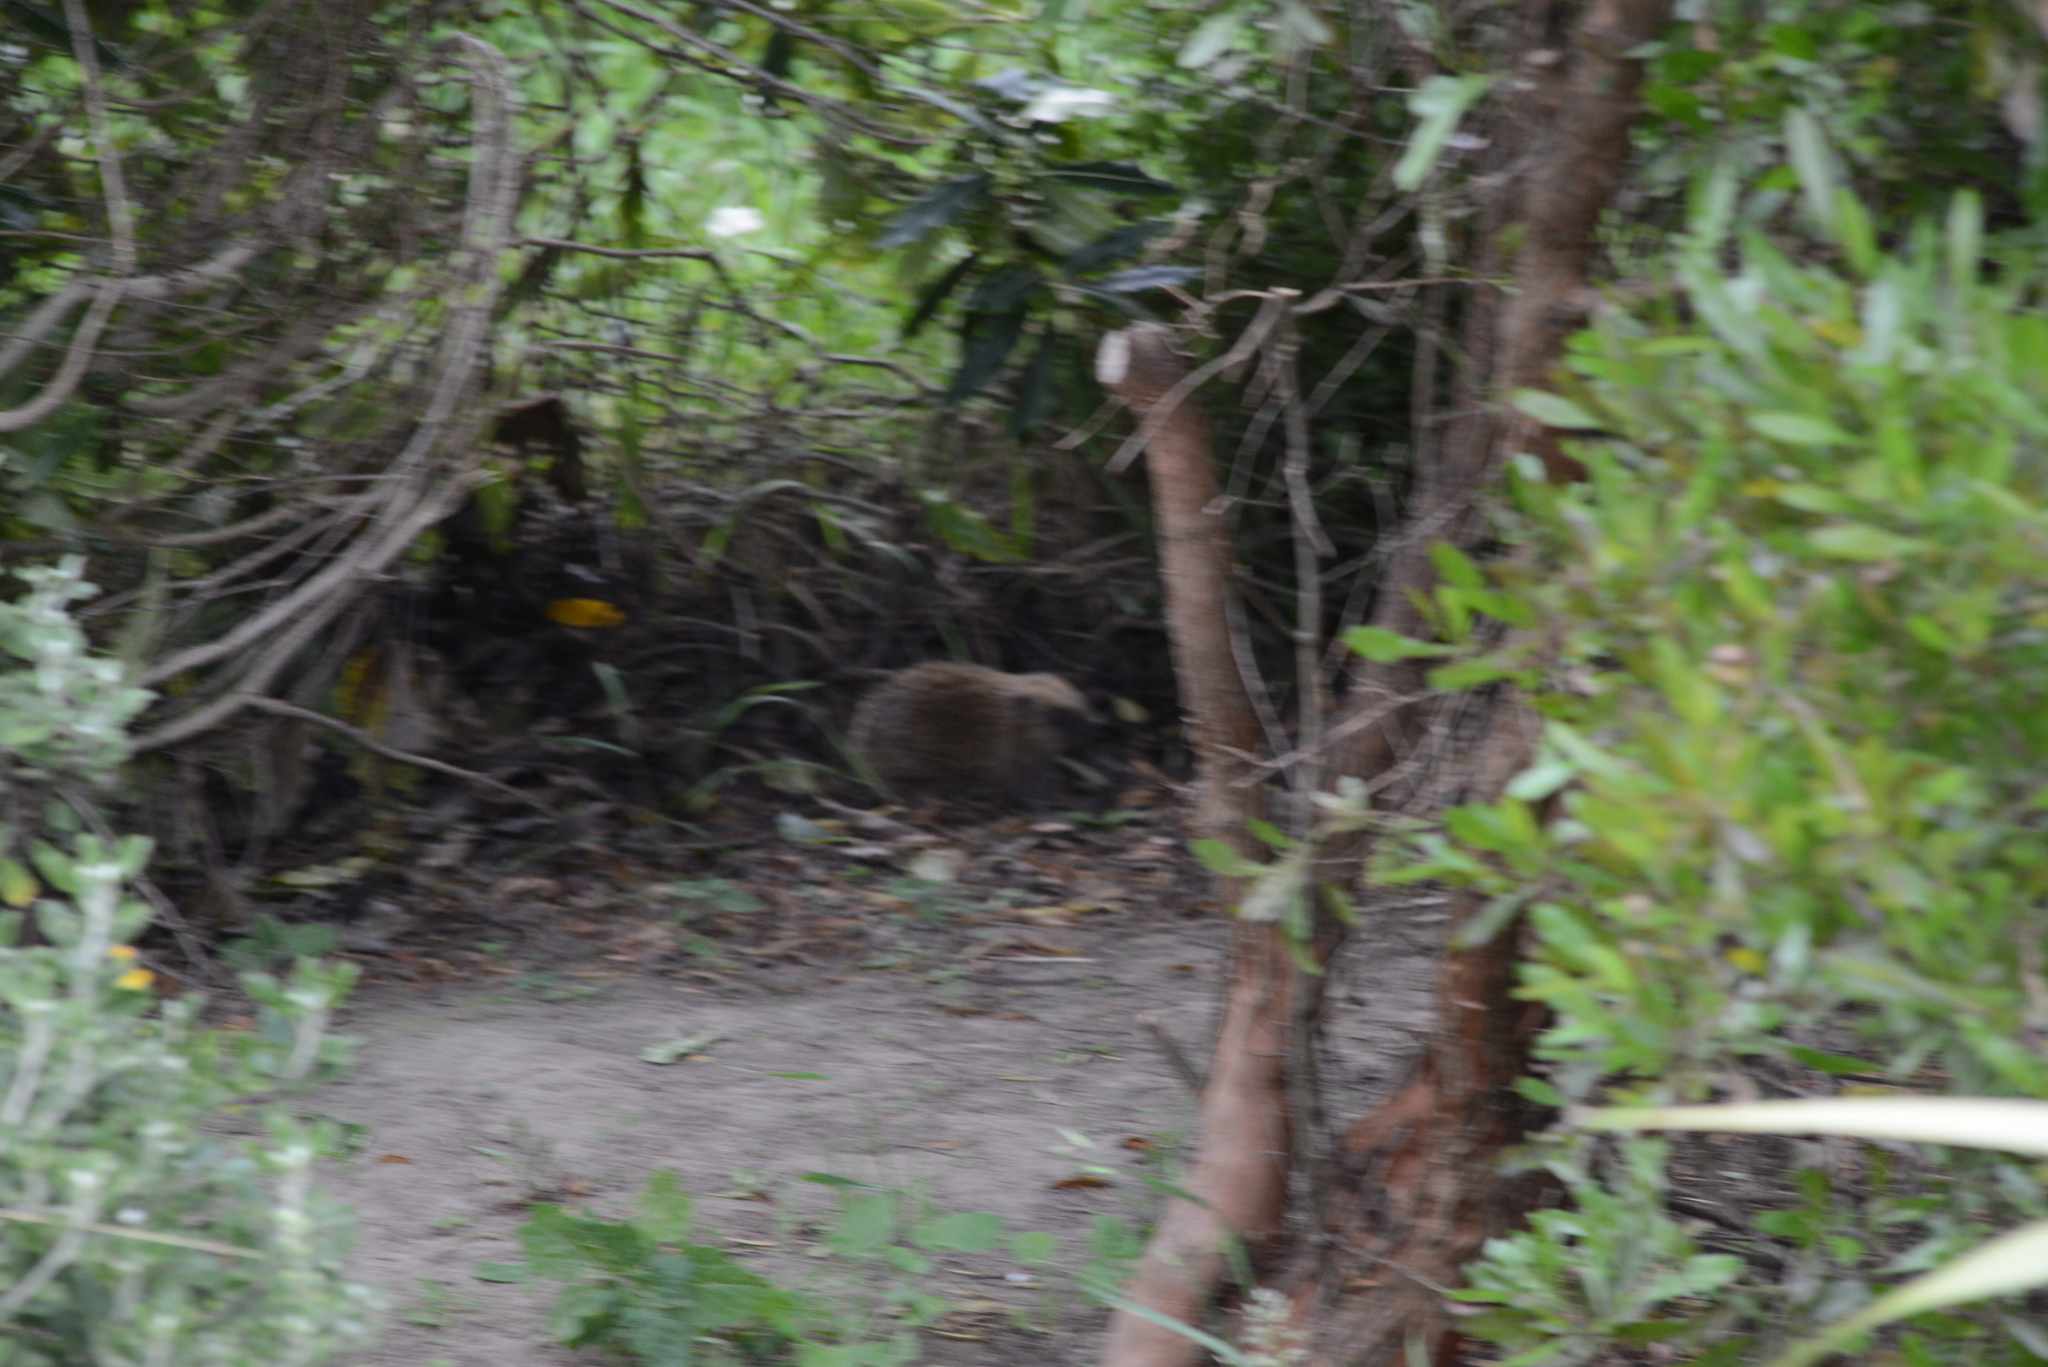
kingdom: Animalia
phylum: Chordata
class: Mammalia
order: Erinaceomorpha
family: Erinaceidae
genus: Erinaceus
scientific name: Erinaceus europaeus
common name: West european hedgehog
